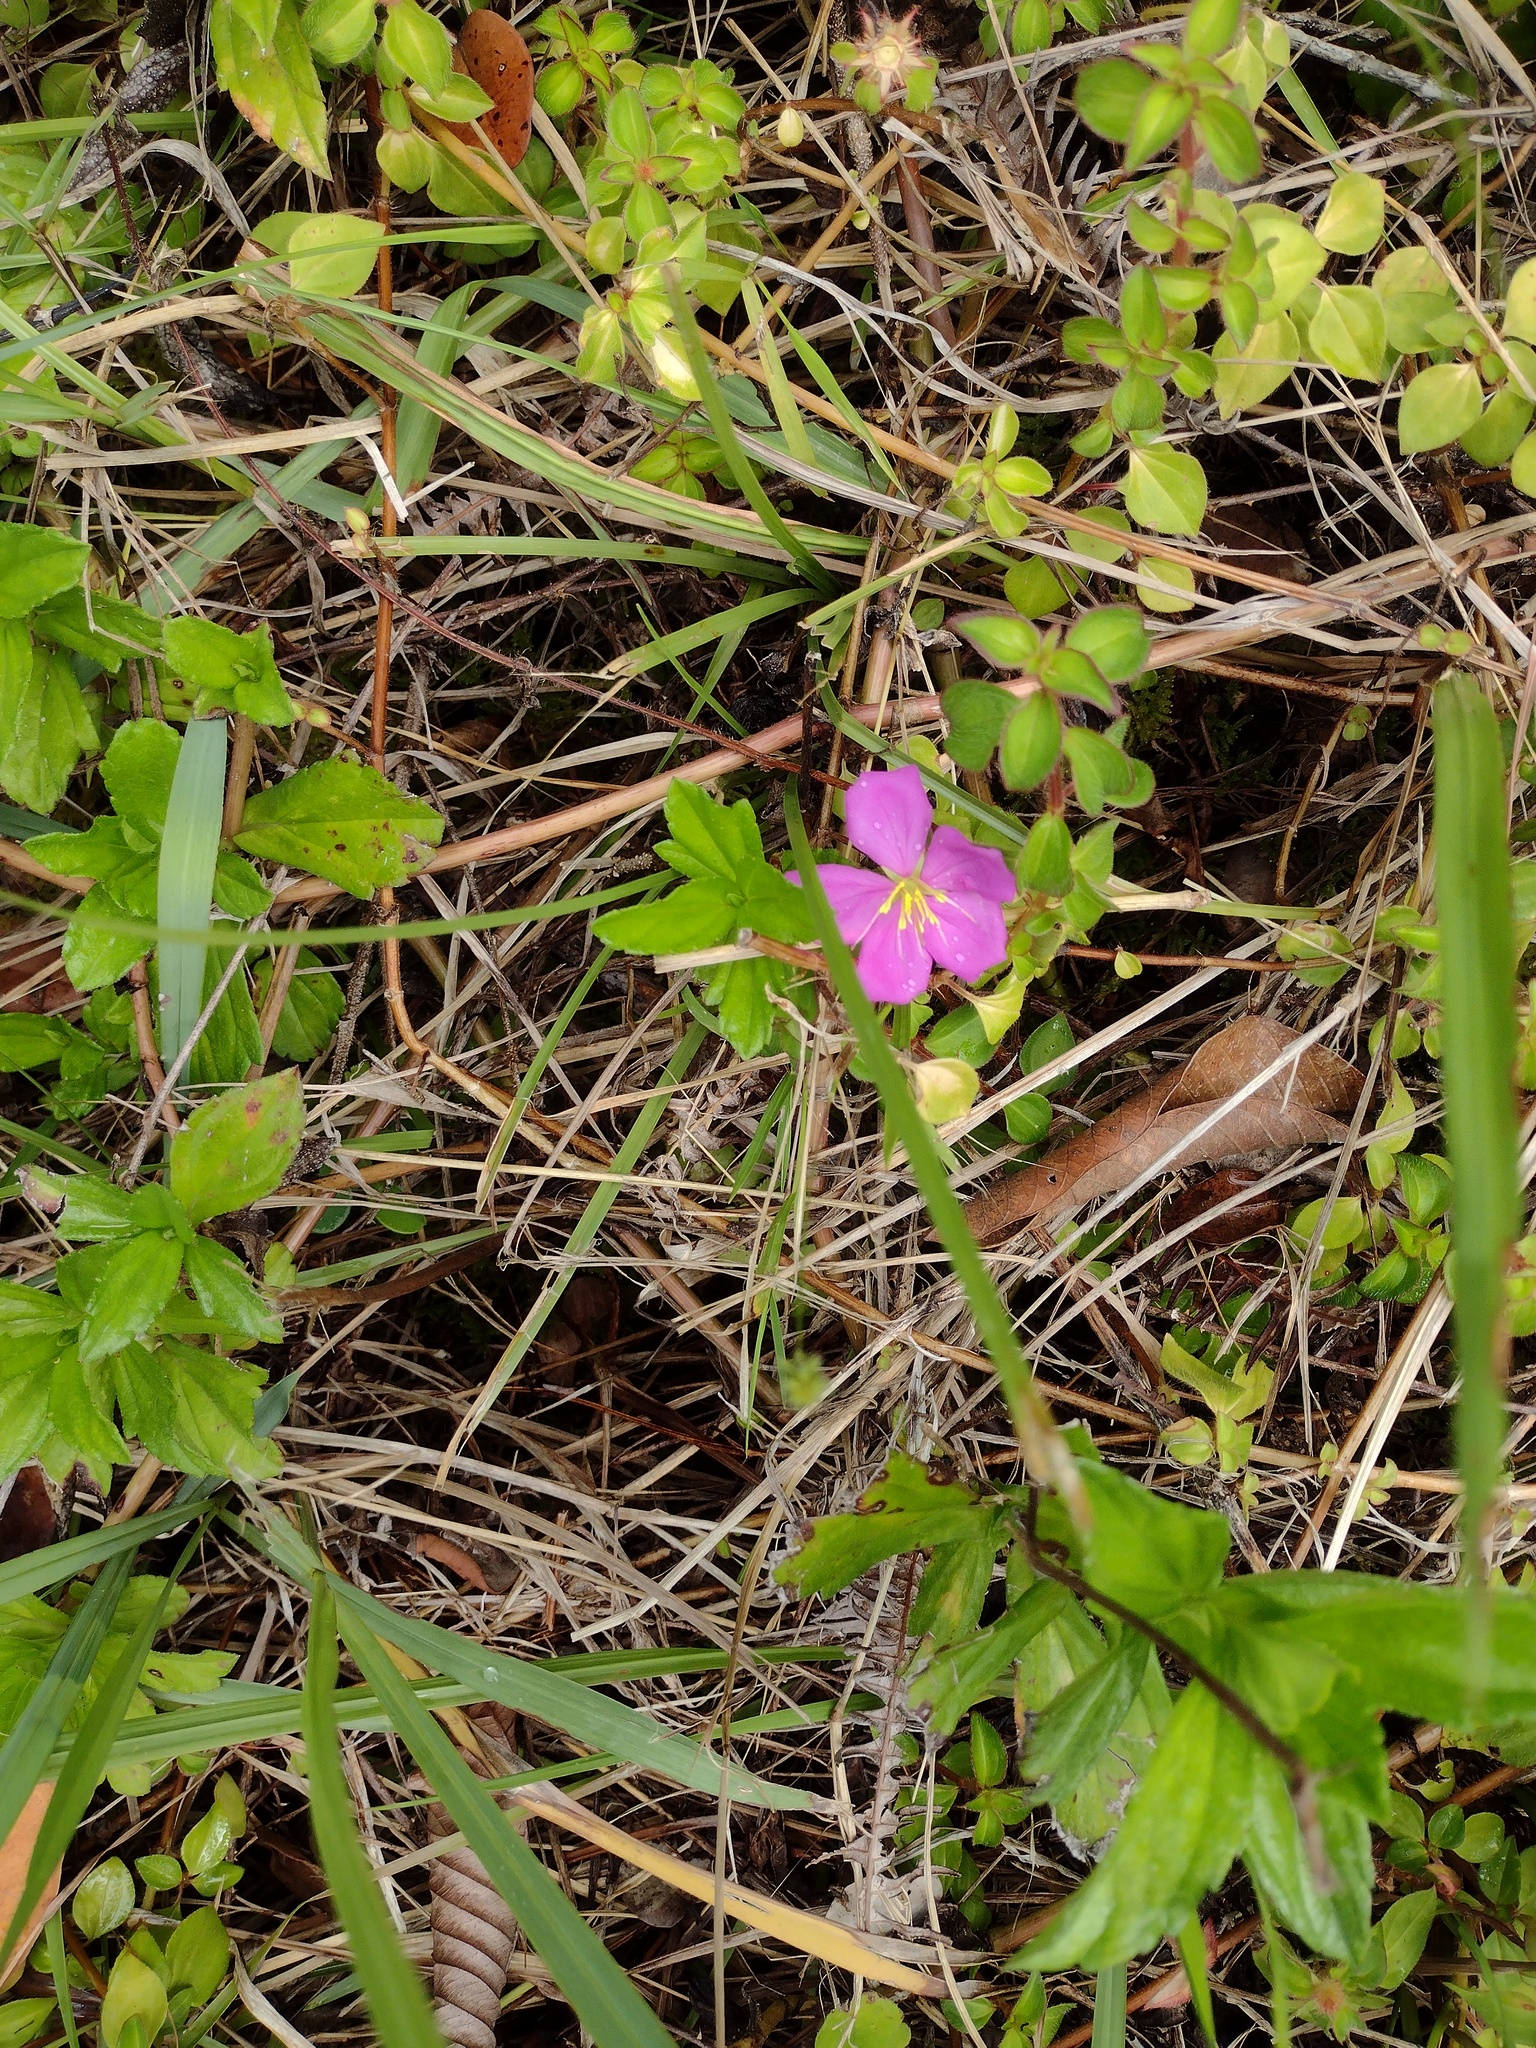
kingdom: Plantae
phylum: Tracheophyta
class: Magnoliopsida
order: Myrtales
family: Melastomataceae
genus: Heterotis
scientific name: Heterotis rotundifolia
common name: Pinklady
